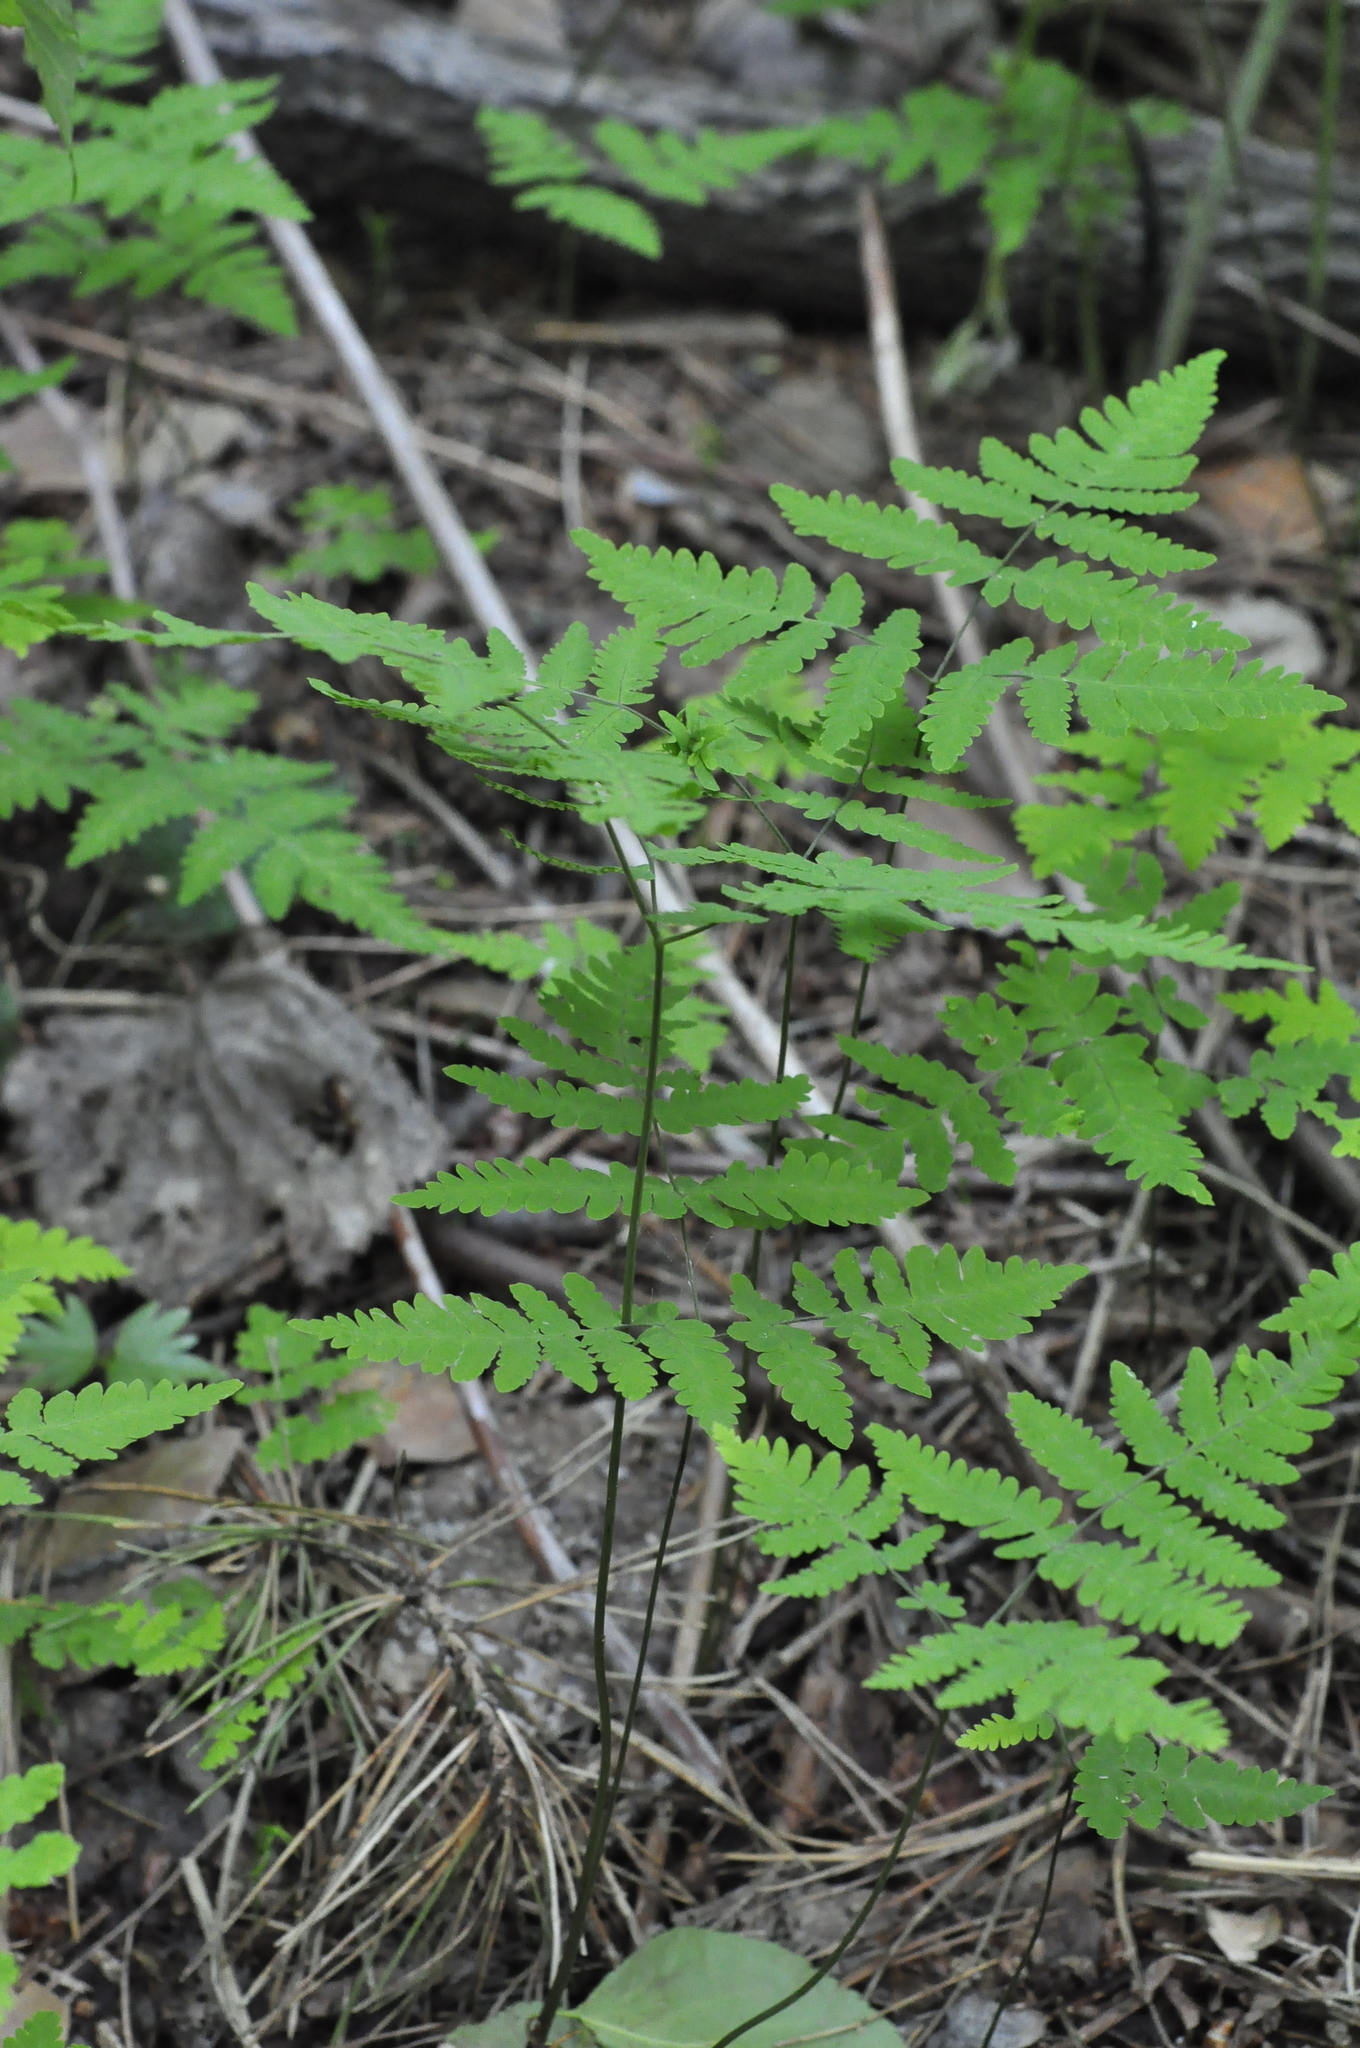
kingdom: Plantae
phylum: Tracheophyta
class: Polypodiopsida
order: Polypodiales
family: Cystopteridaceae
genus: Gymnocarpium
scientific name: Gymnocarpium dryopteris
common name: Oak fern
